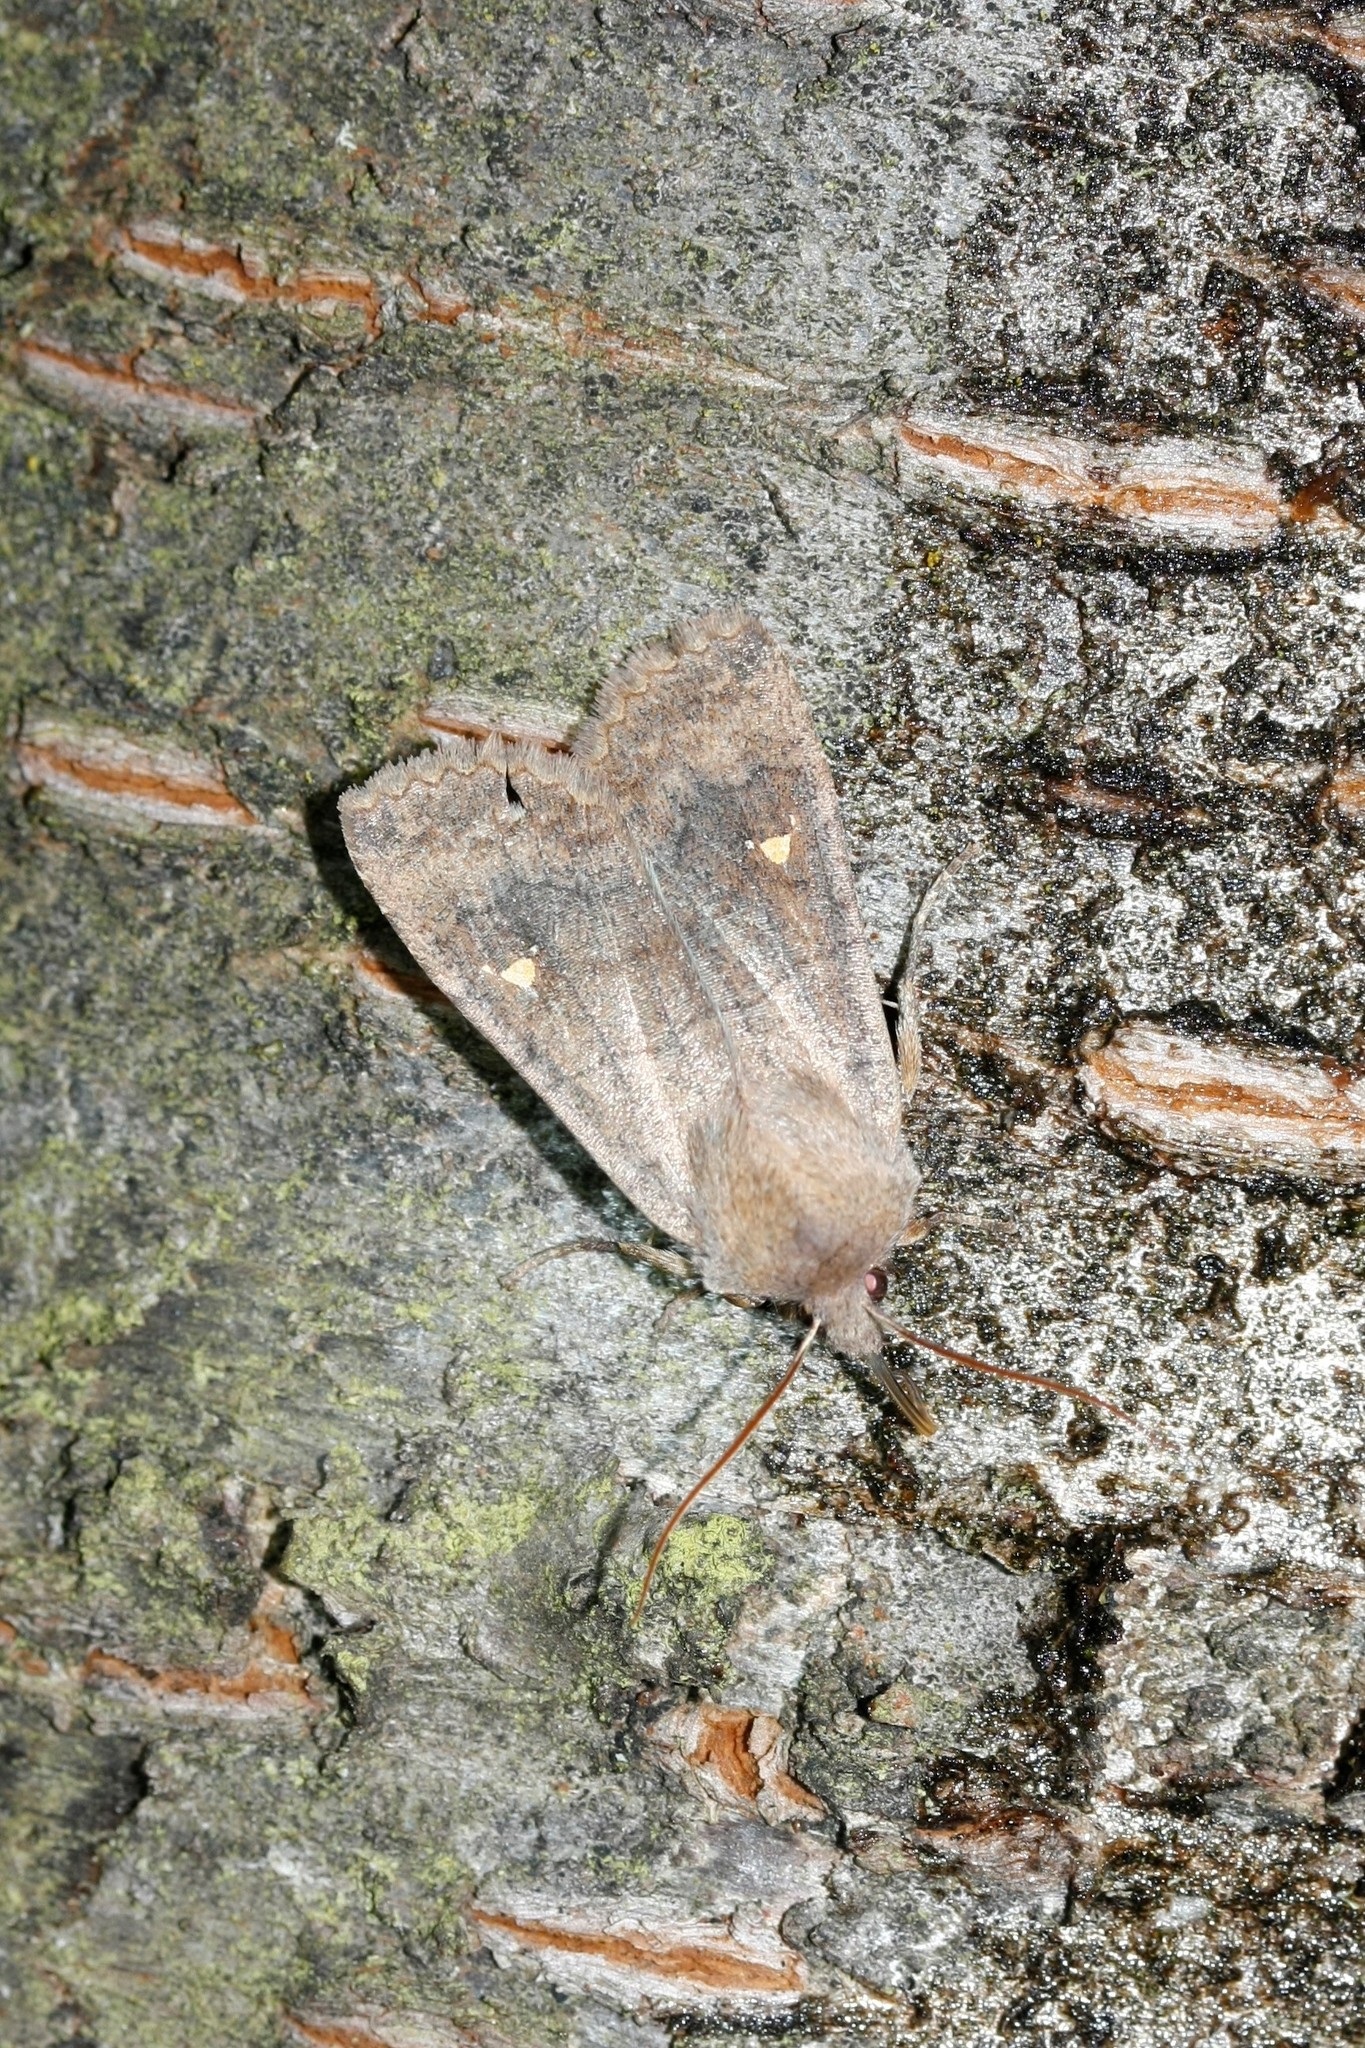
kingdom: Animalia
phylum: Arthropoda
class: Insecta
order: Lepidoptera
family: Noctuidae
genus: Eupsilia
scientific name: Eupsilia transversa
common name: Satellite
